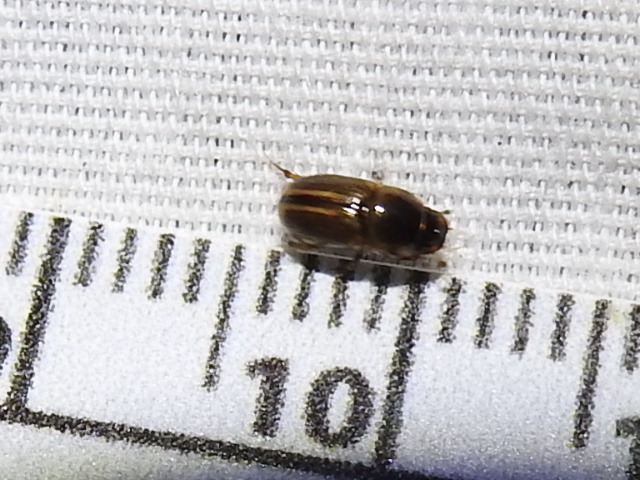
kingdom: Animalia
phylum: Arthropoda
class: Insecta
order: Coleoptera
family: Scarabaeidae
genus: Labarrus
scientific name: Labarrus lividus
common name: Scarab beetle
